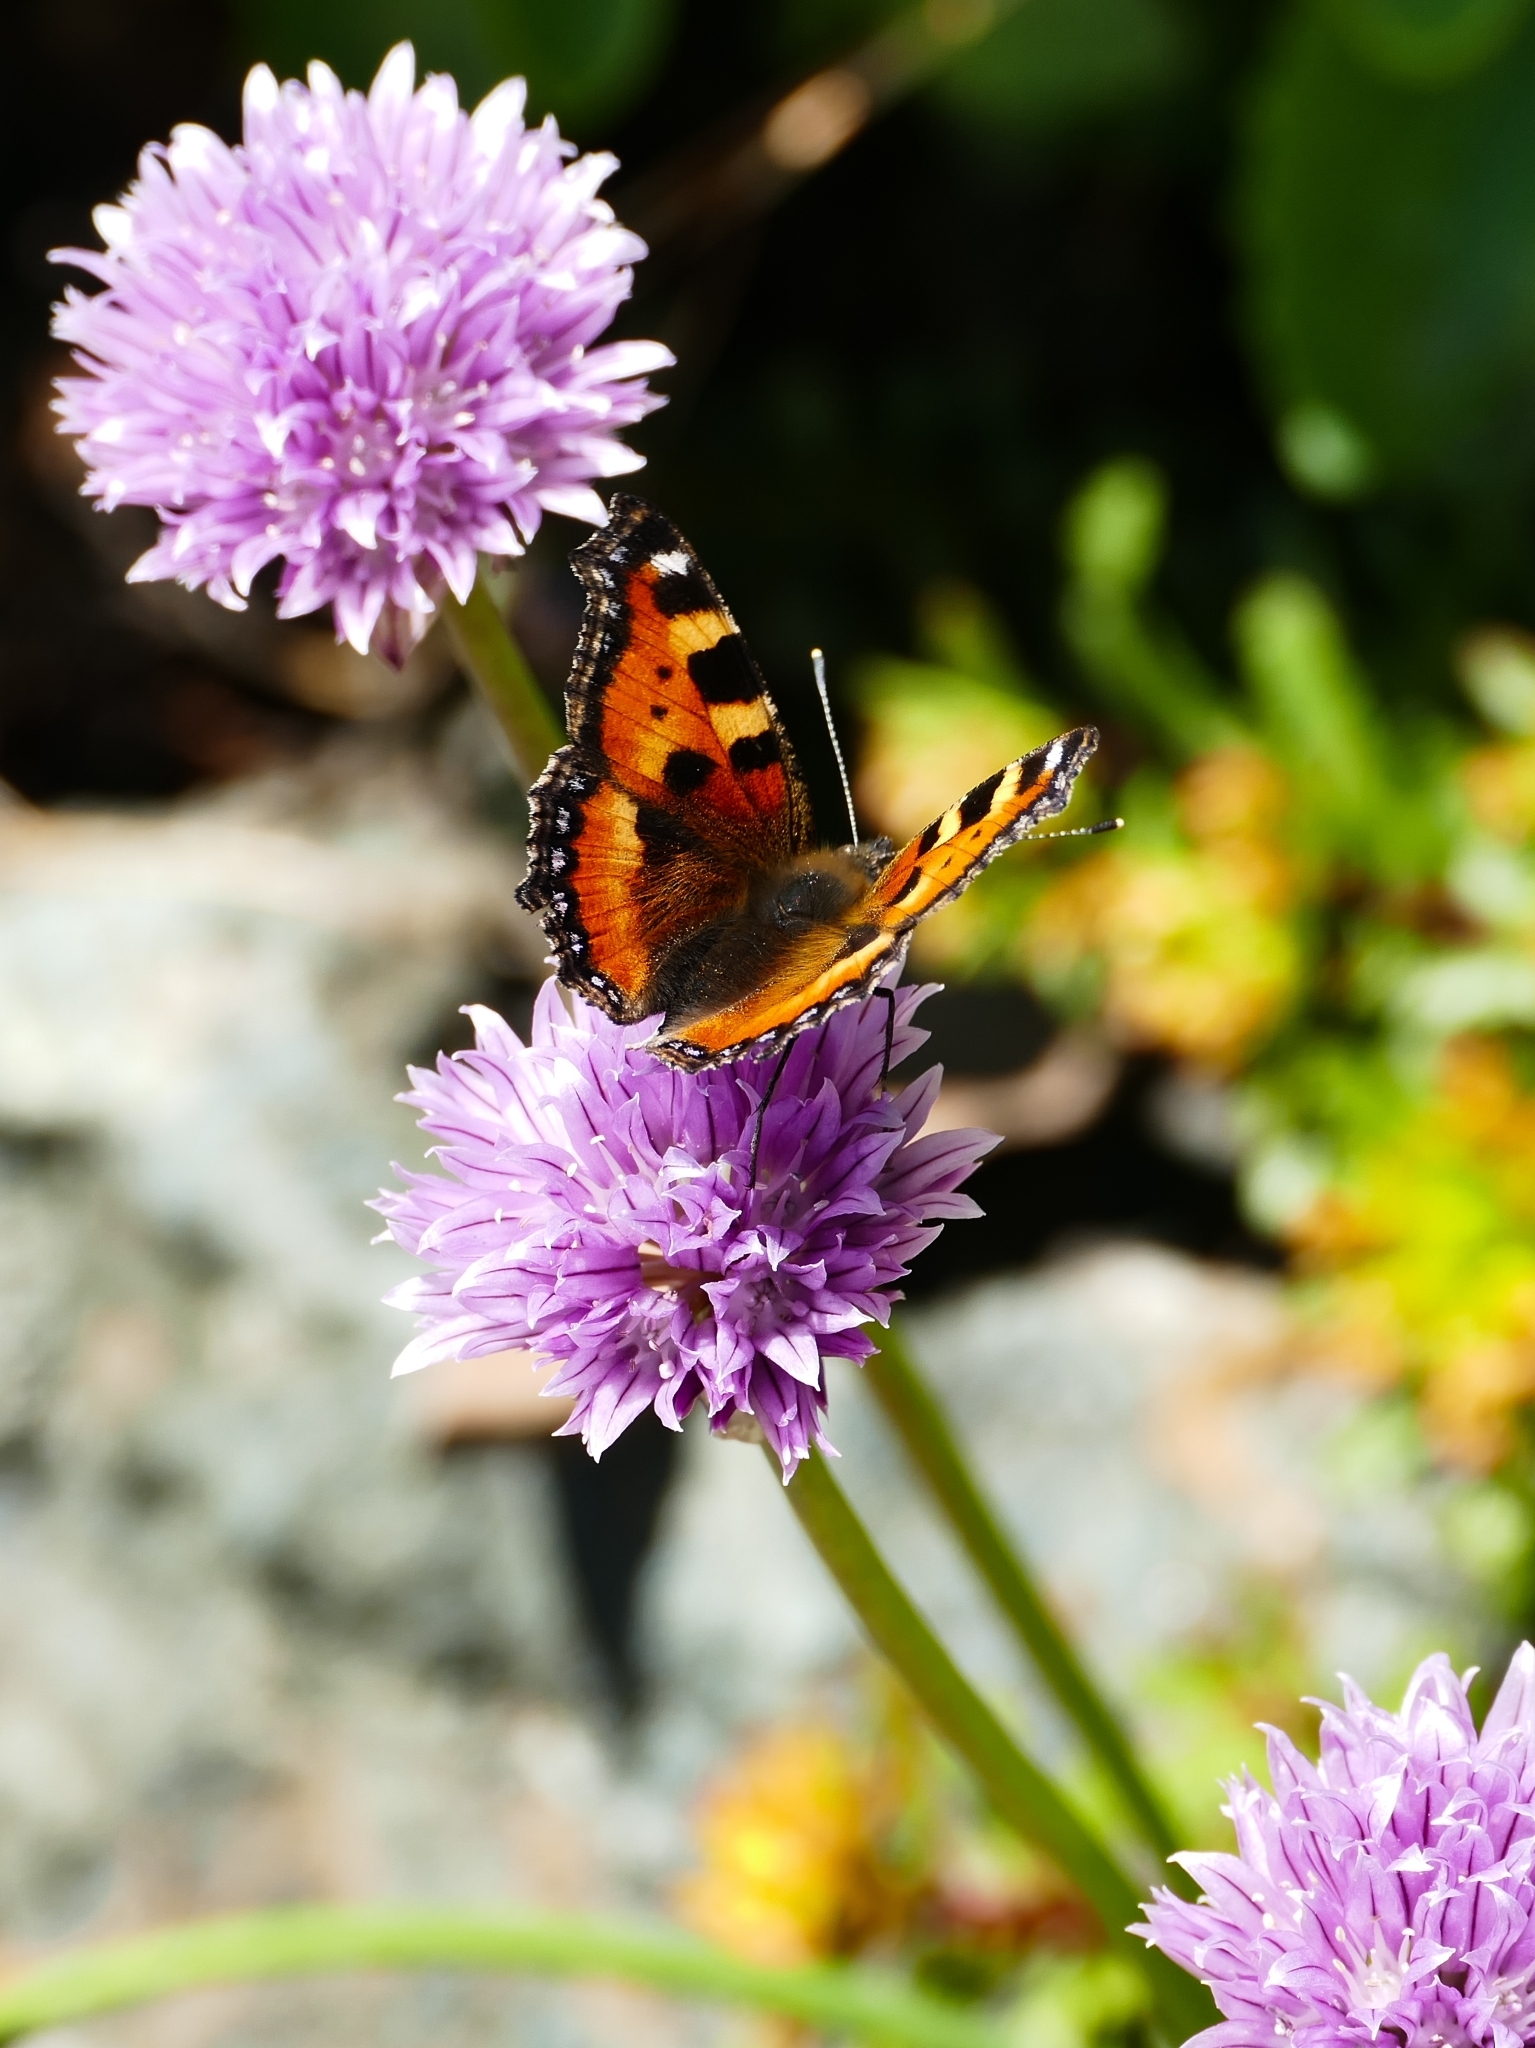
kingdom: Animalia
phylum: Arthropoda
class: Insecta
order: Lepidoptera
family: Nymphalidae
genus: Aglais
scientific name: Aglais urticae
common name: Small tortoiseshell
